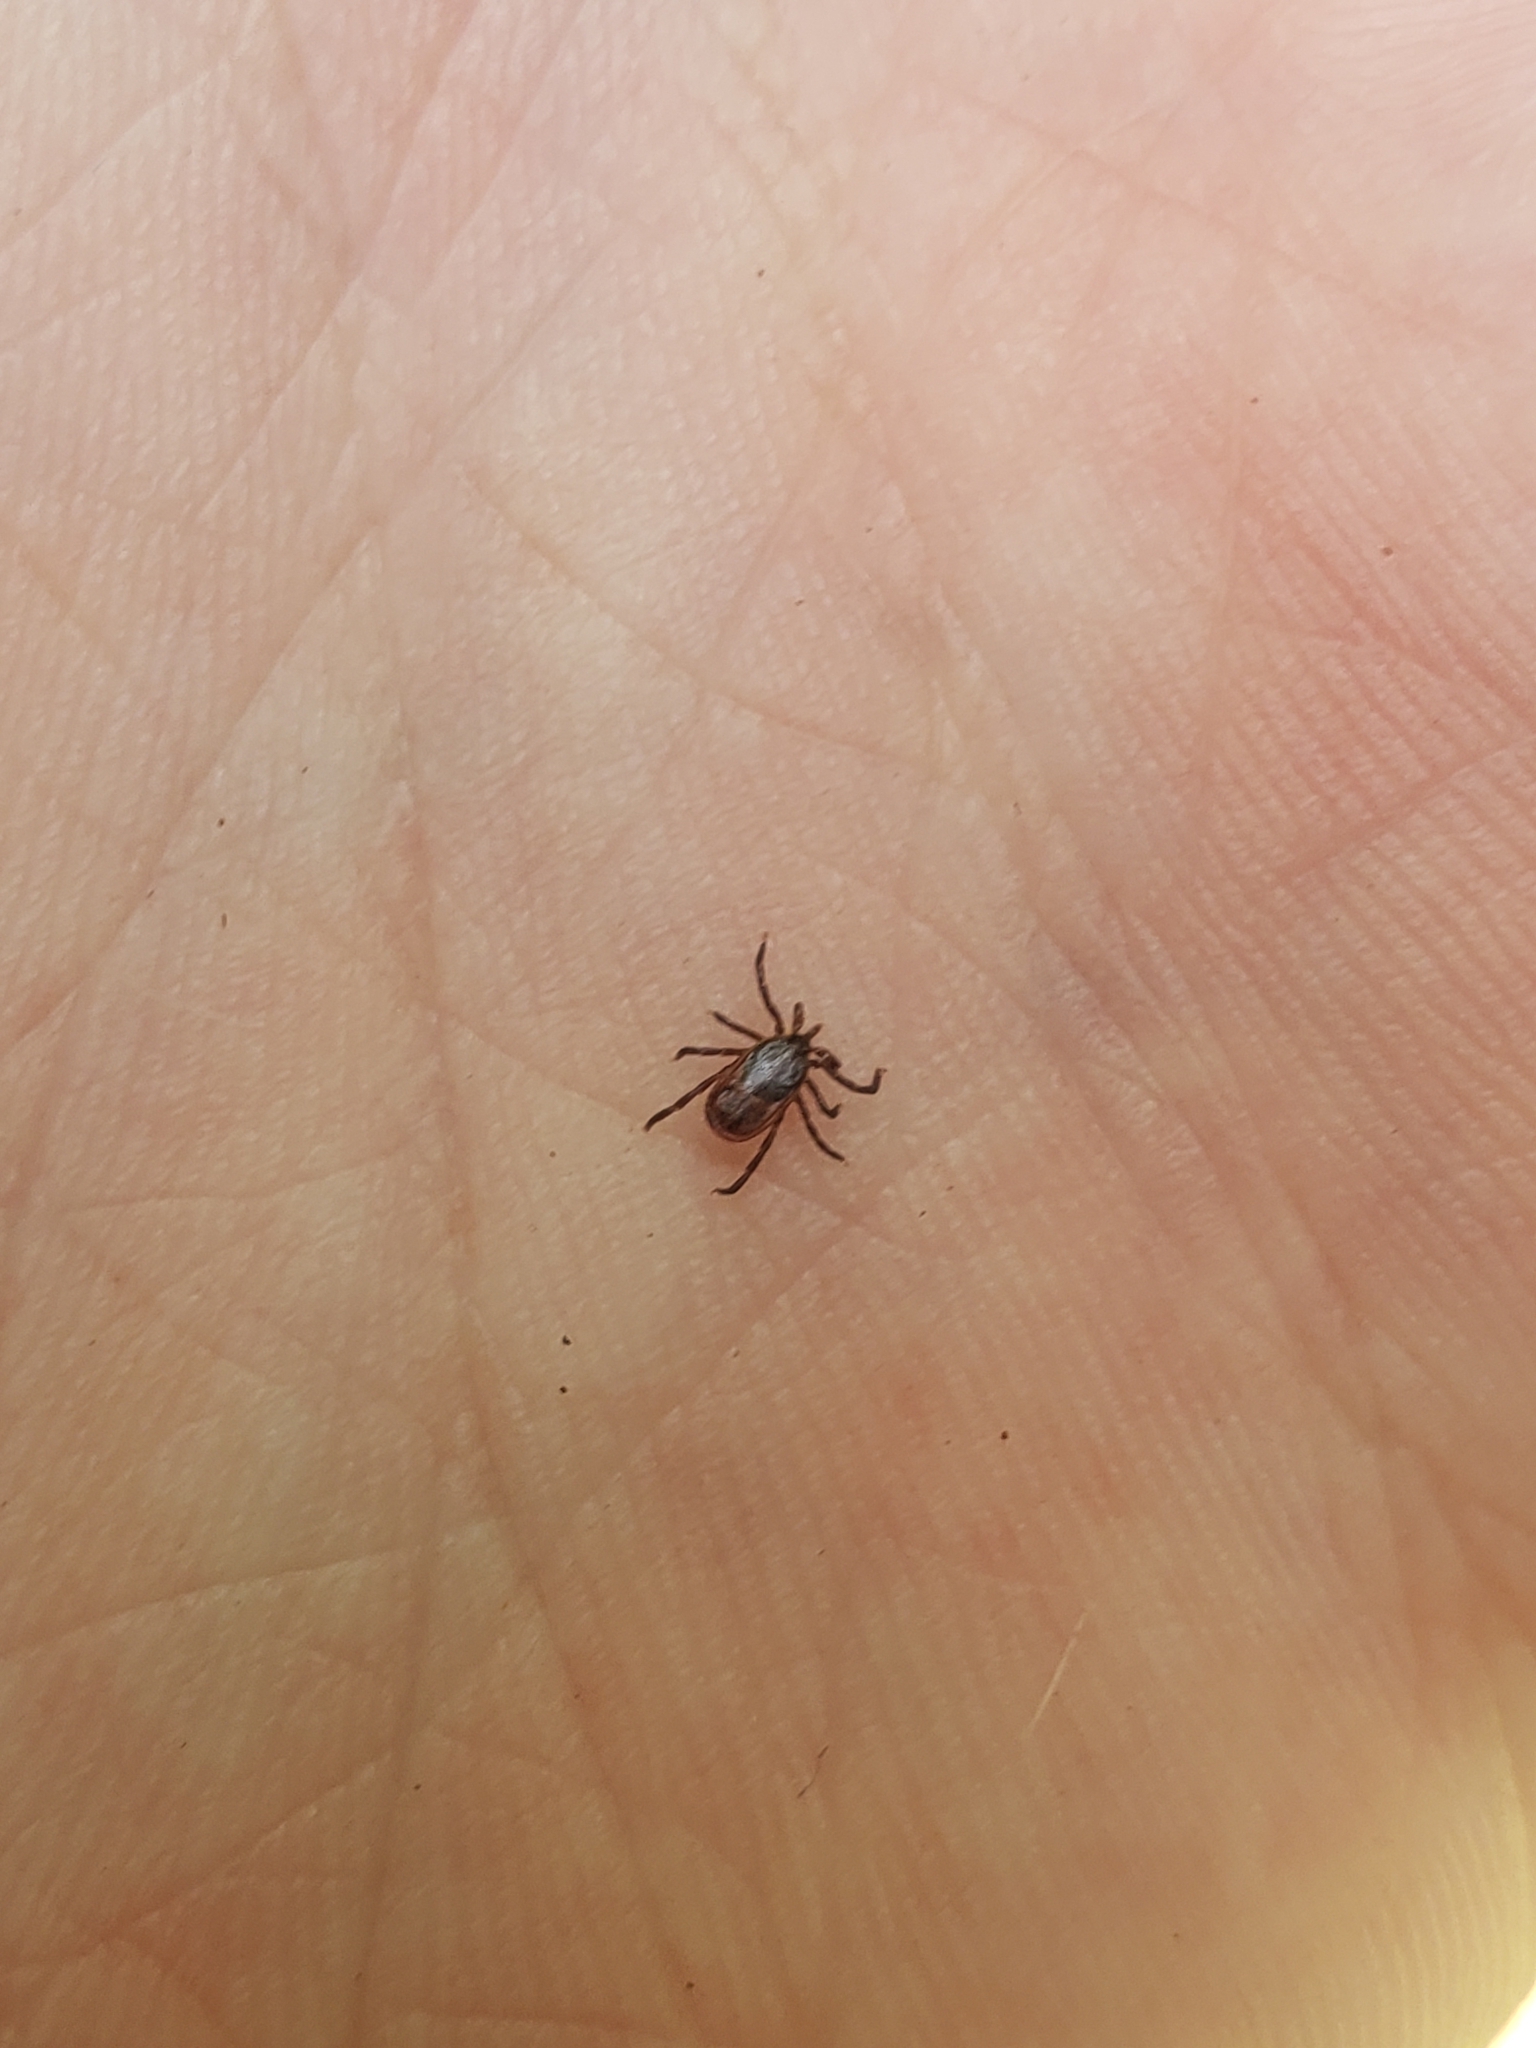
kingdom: Animalia
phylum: Arthropoda
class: Arachnida
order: Ixodida
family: Ixodidae
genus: Ixodes
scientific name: Ixodes scapularis
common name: Black legged tick
